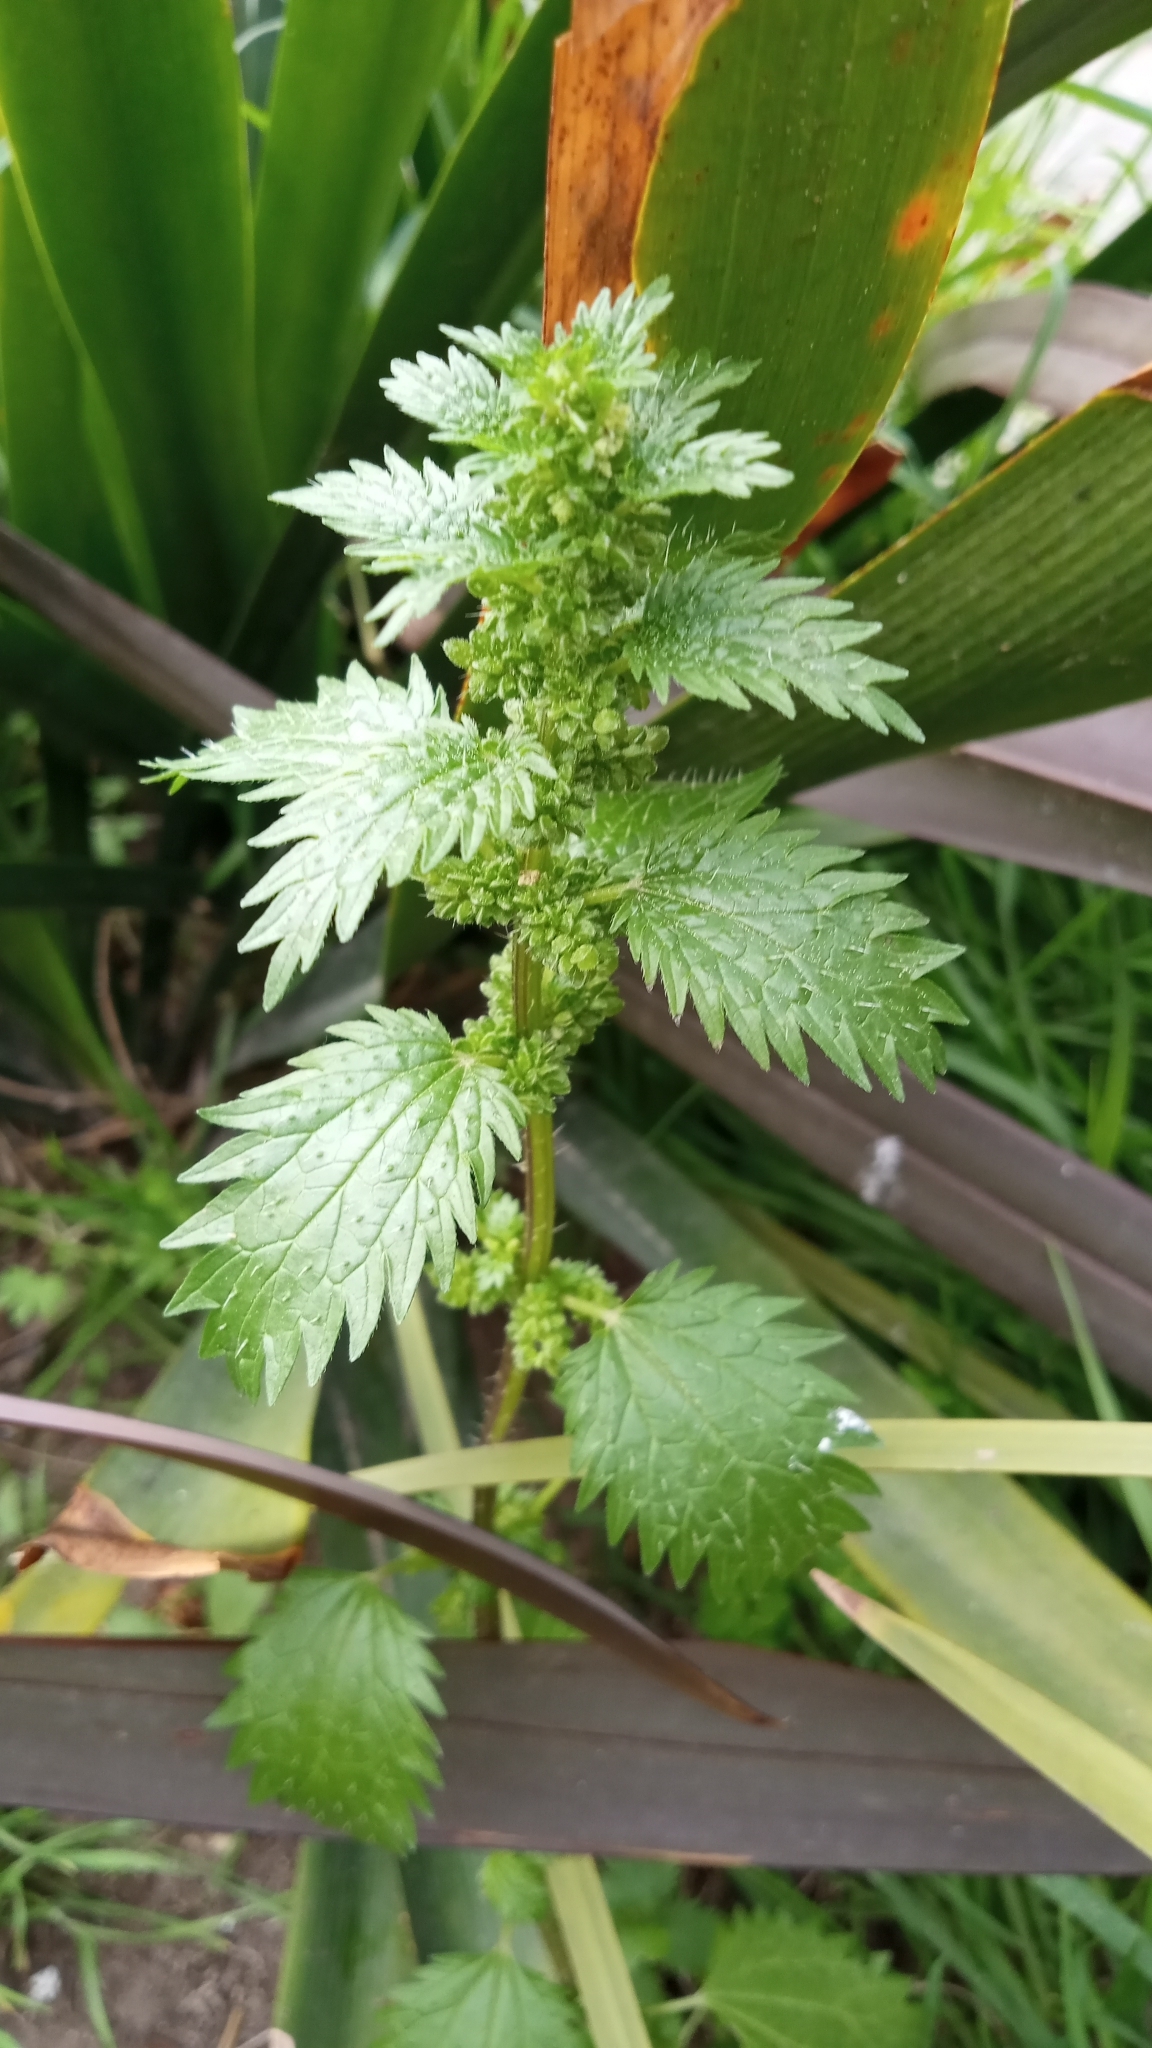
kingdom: Plantae
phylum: Tracheophyta
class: Magnoliopsida
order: Rosales
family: Urticaceae
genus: Urtica
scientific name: Urtica urens
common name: Dwarf nettle
